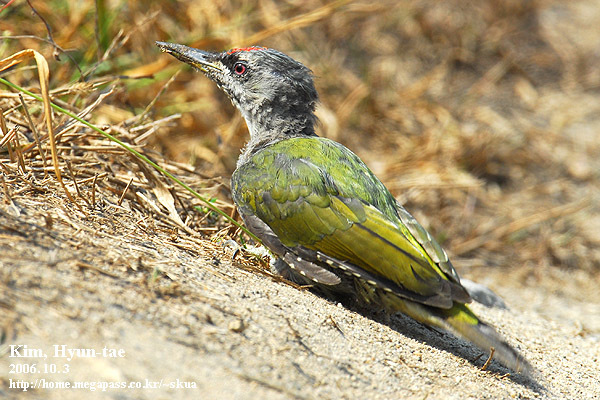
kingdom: Animalia
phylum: Chordata
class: Aves
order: Piciformes
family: Picidae
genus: Picus
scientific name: Picus canus
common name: Grey-headed woodpecker
